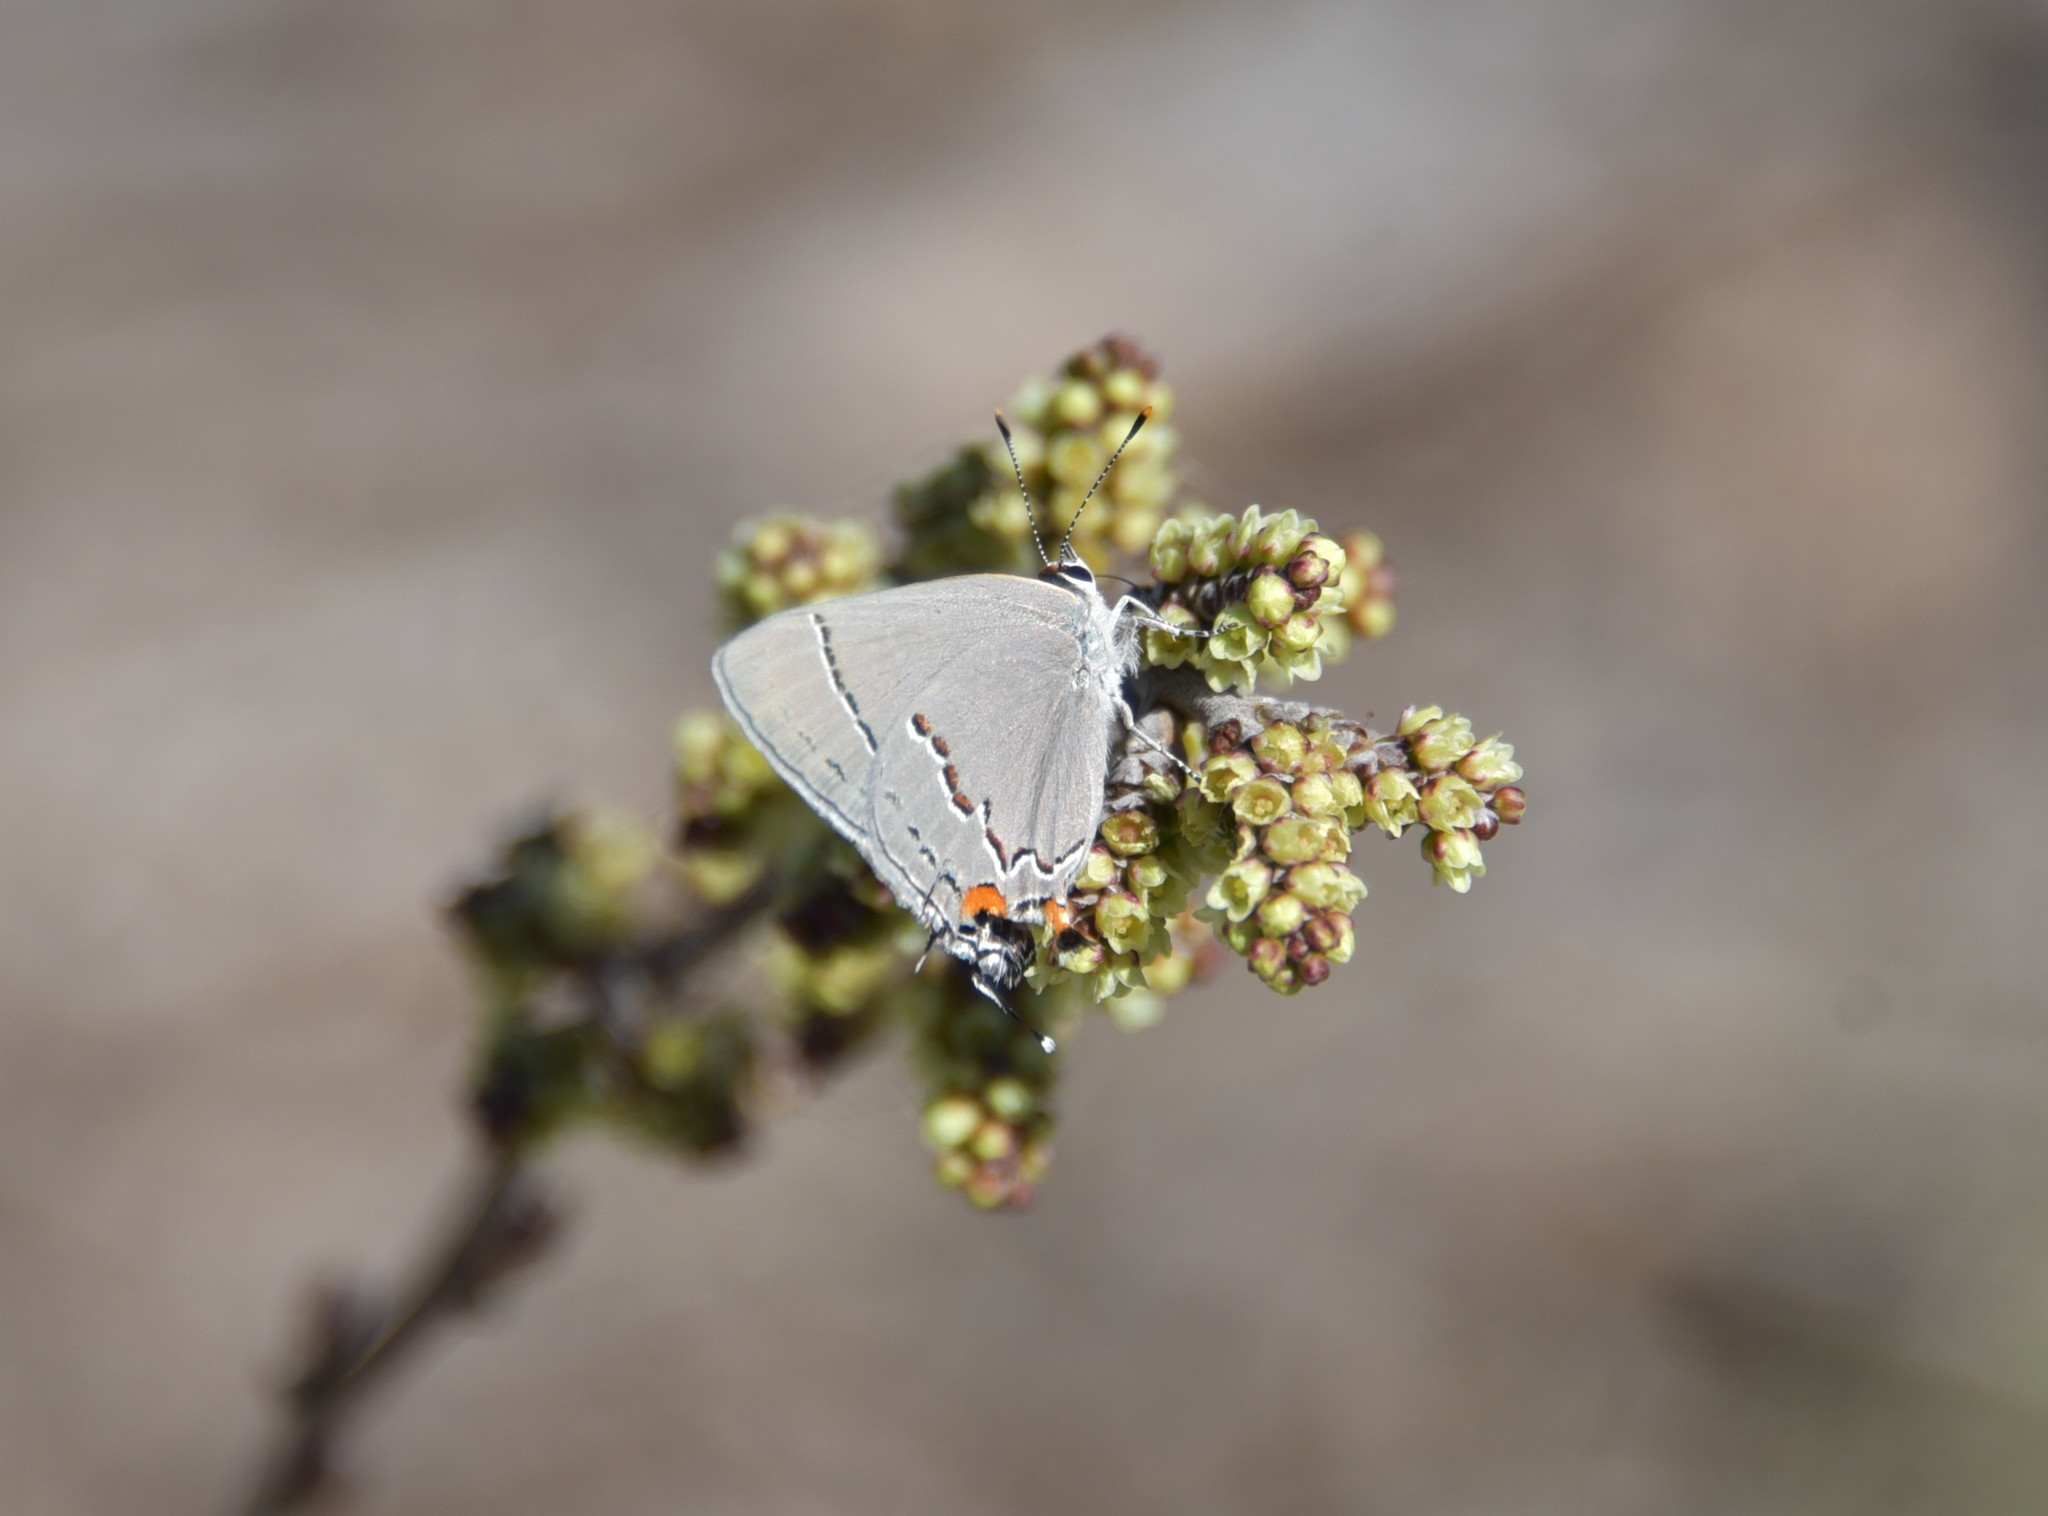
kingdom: Animalia
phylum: Arthropoda
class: Insecta
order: Lepidoptera
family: Lycaenidae
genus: Strymon
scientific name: Strymon melinus
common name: Gray hairstreak
